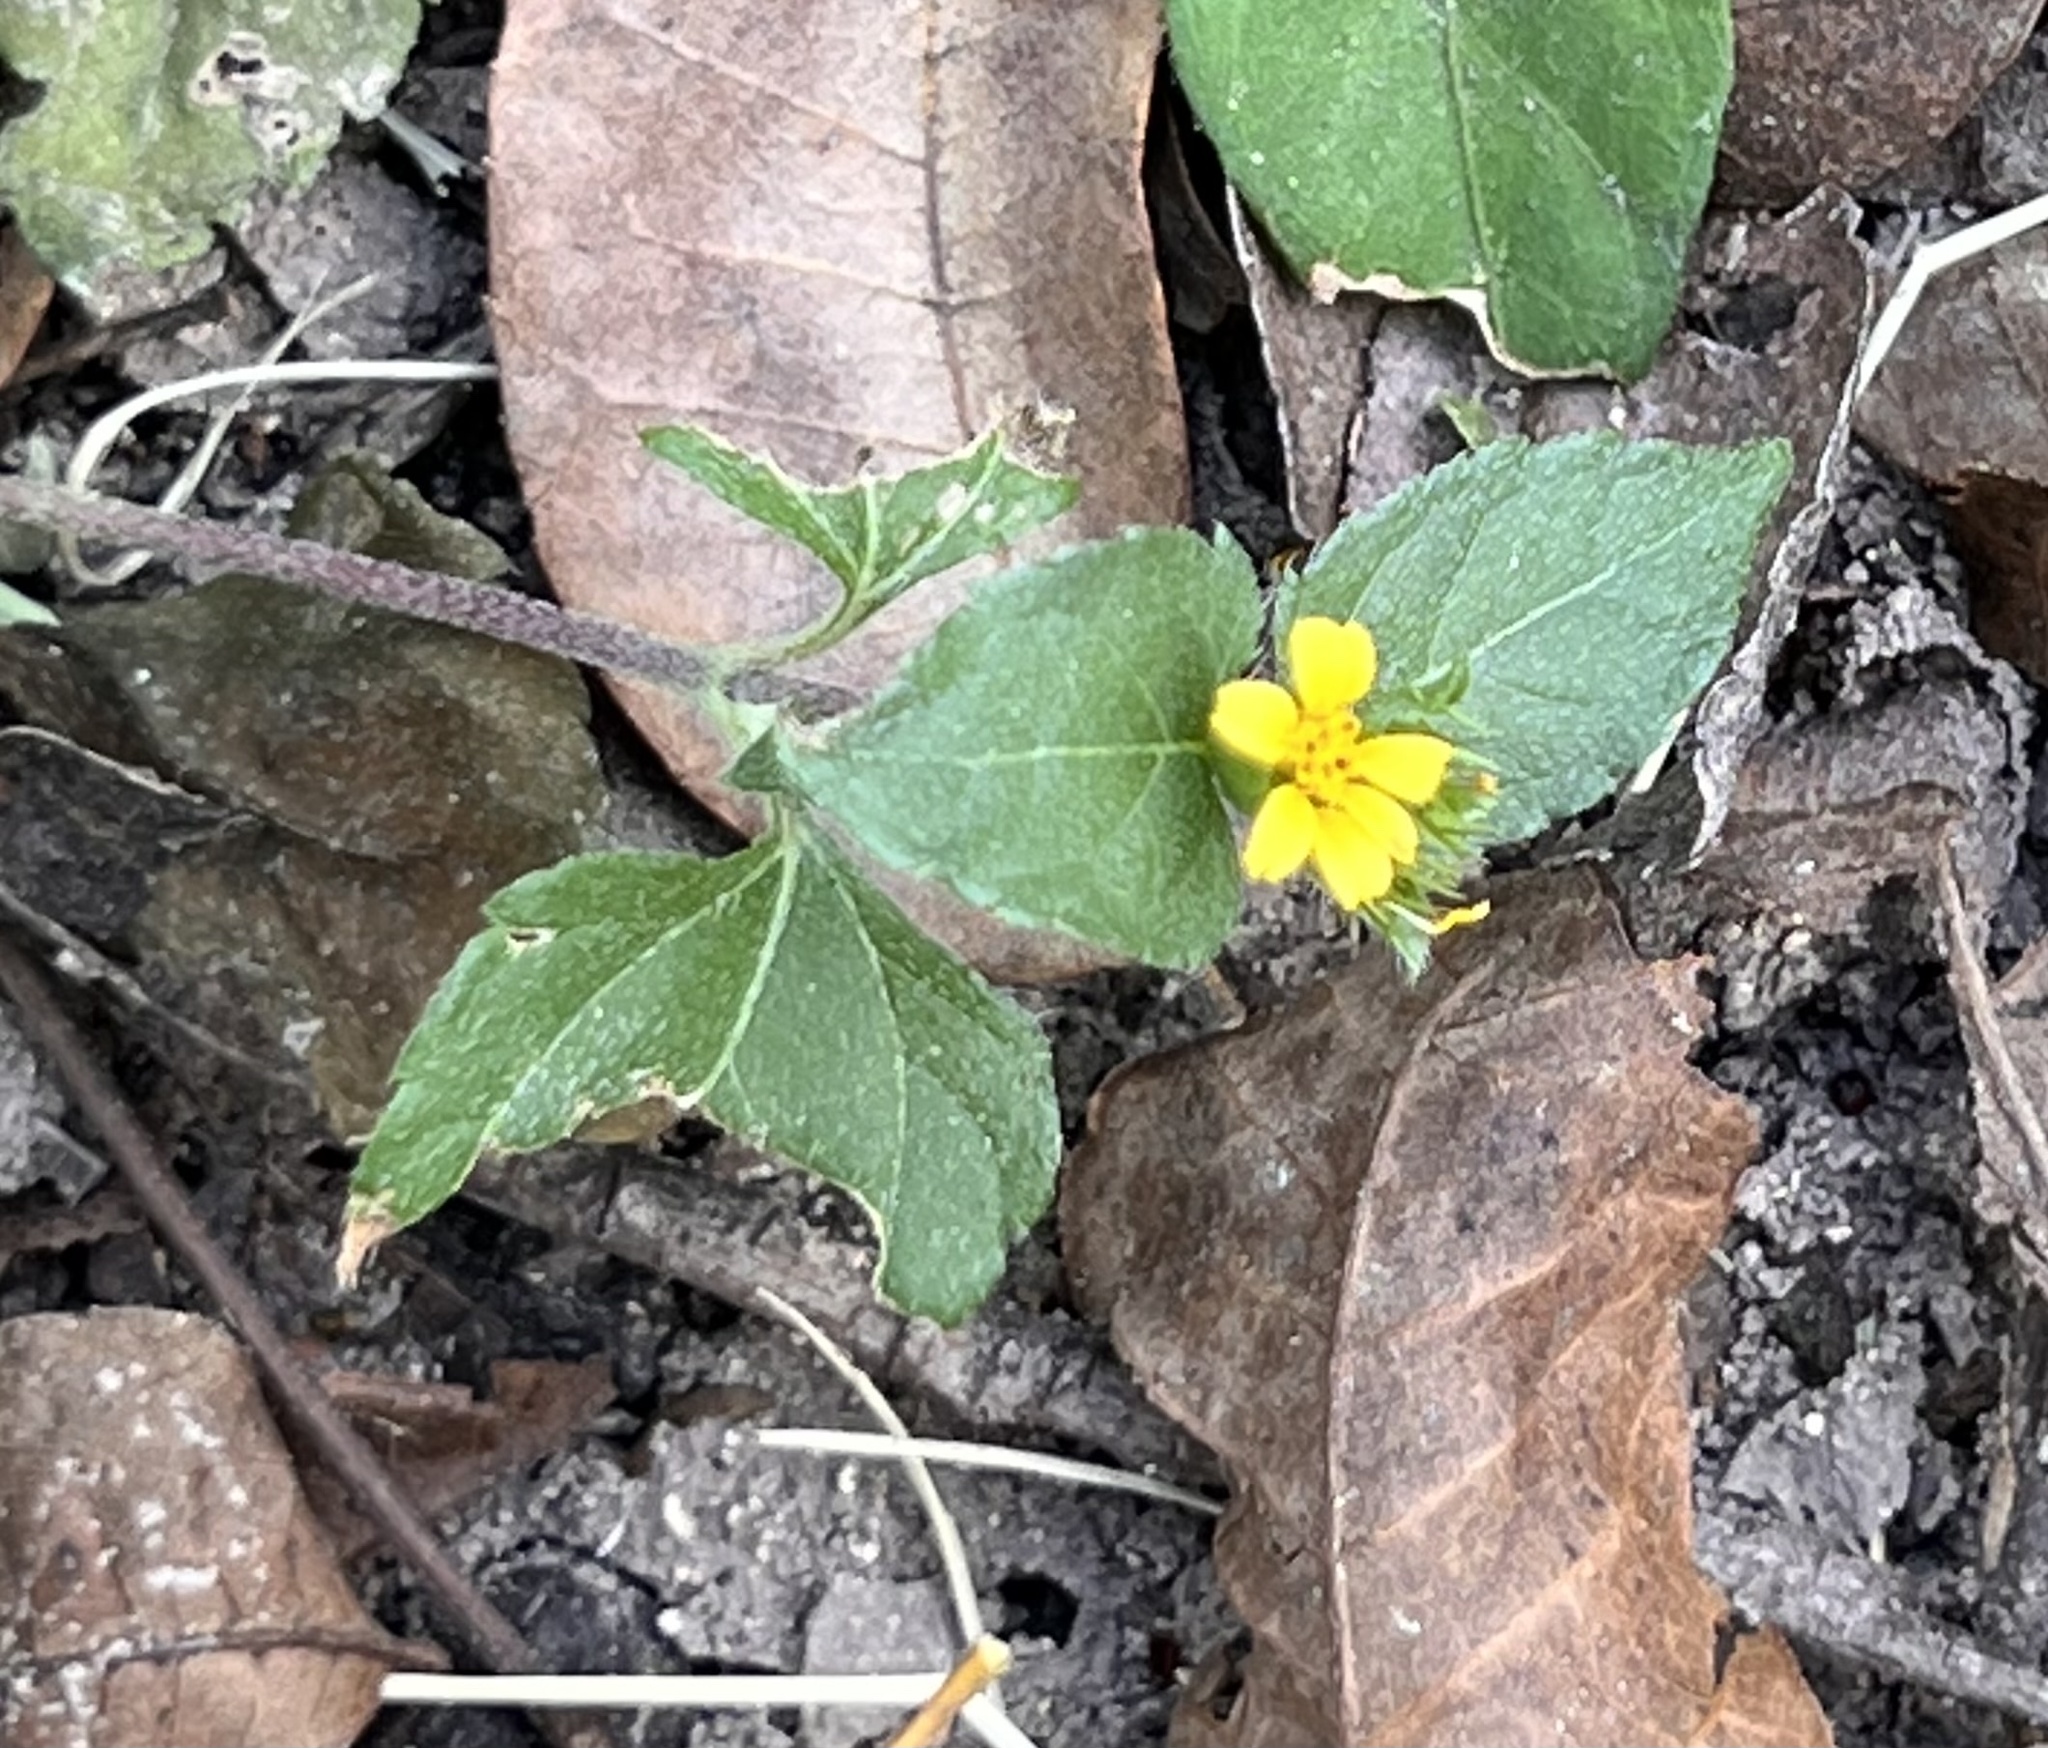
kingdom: Plantae
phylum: Tracheophyta
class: Magnoliopsida
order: Asterales
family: Asteraceae
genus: Calyptocarpus
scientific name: Calyptocarpus vialis
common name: Straggler daisy
